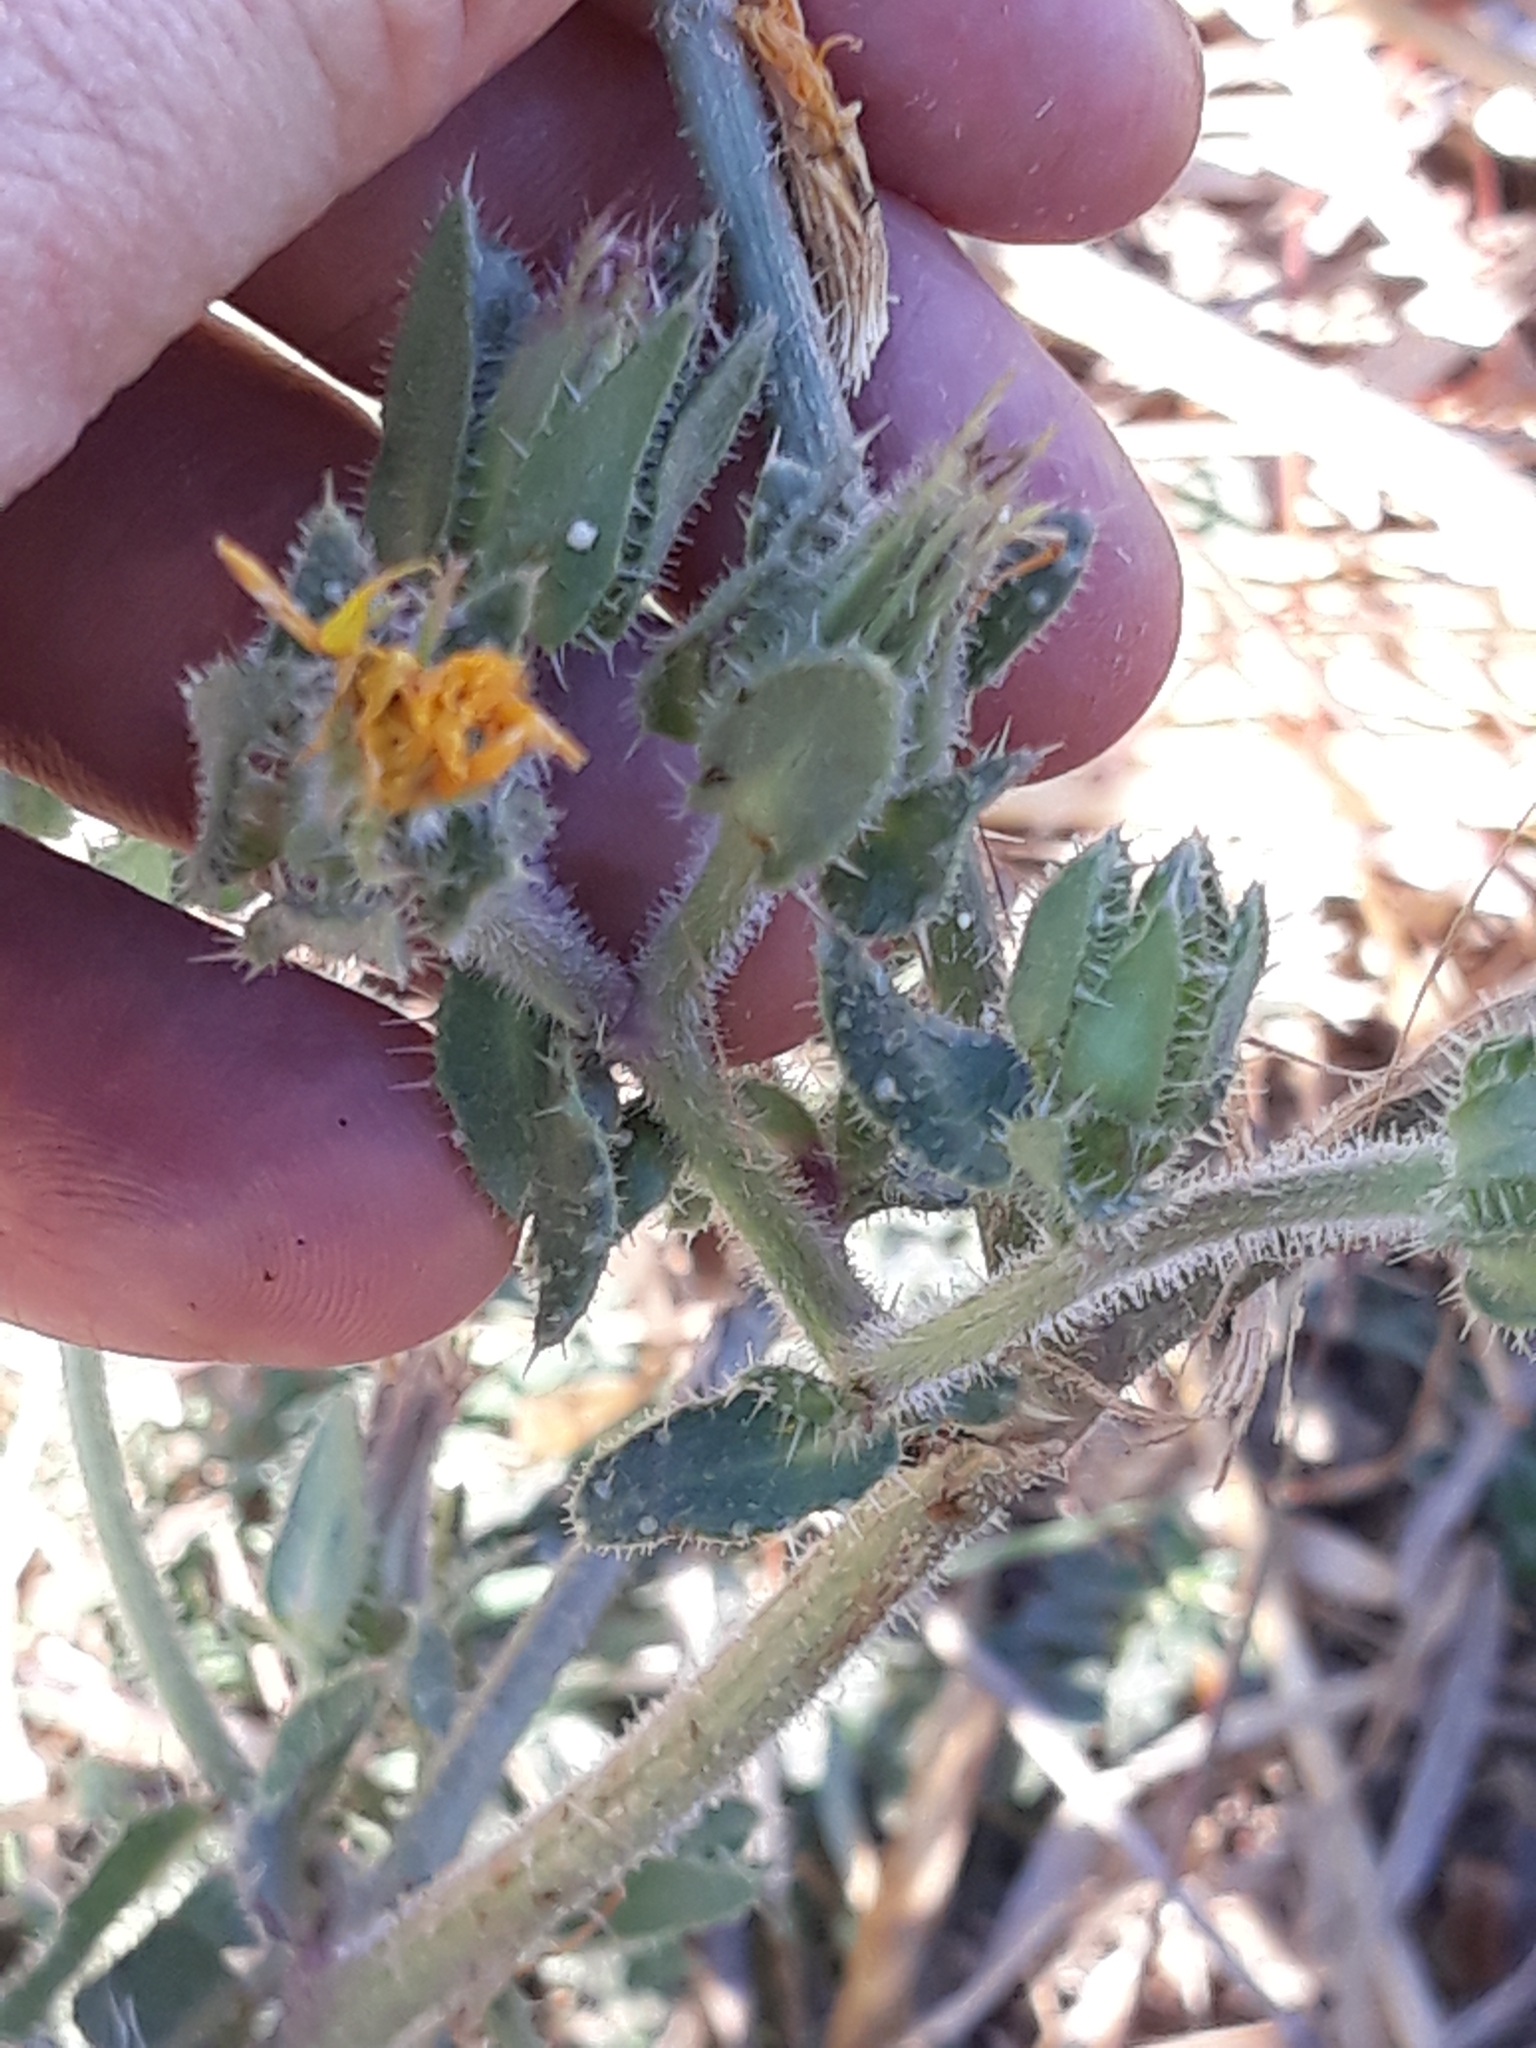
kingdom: Plantae
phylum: Tracheophyta
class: Magnoliopsida
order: Asterales
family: Asteraceae
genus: Helminthotheca
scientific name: Helminthotheca echioides
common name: Ox-tongue
